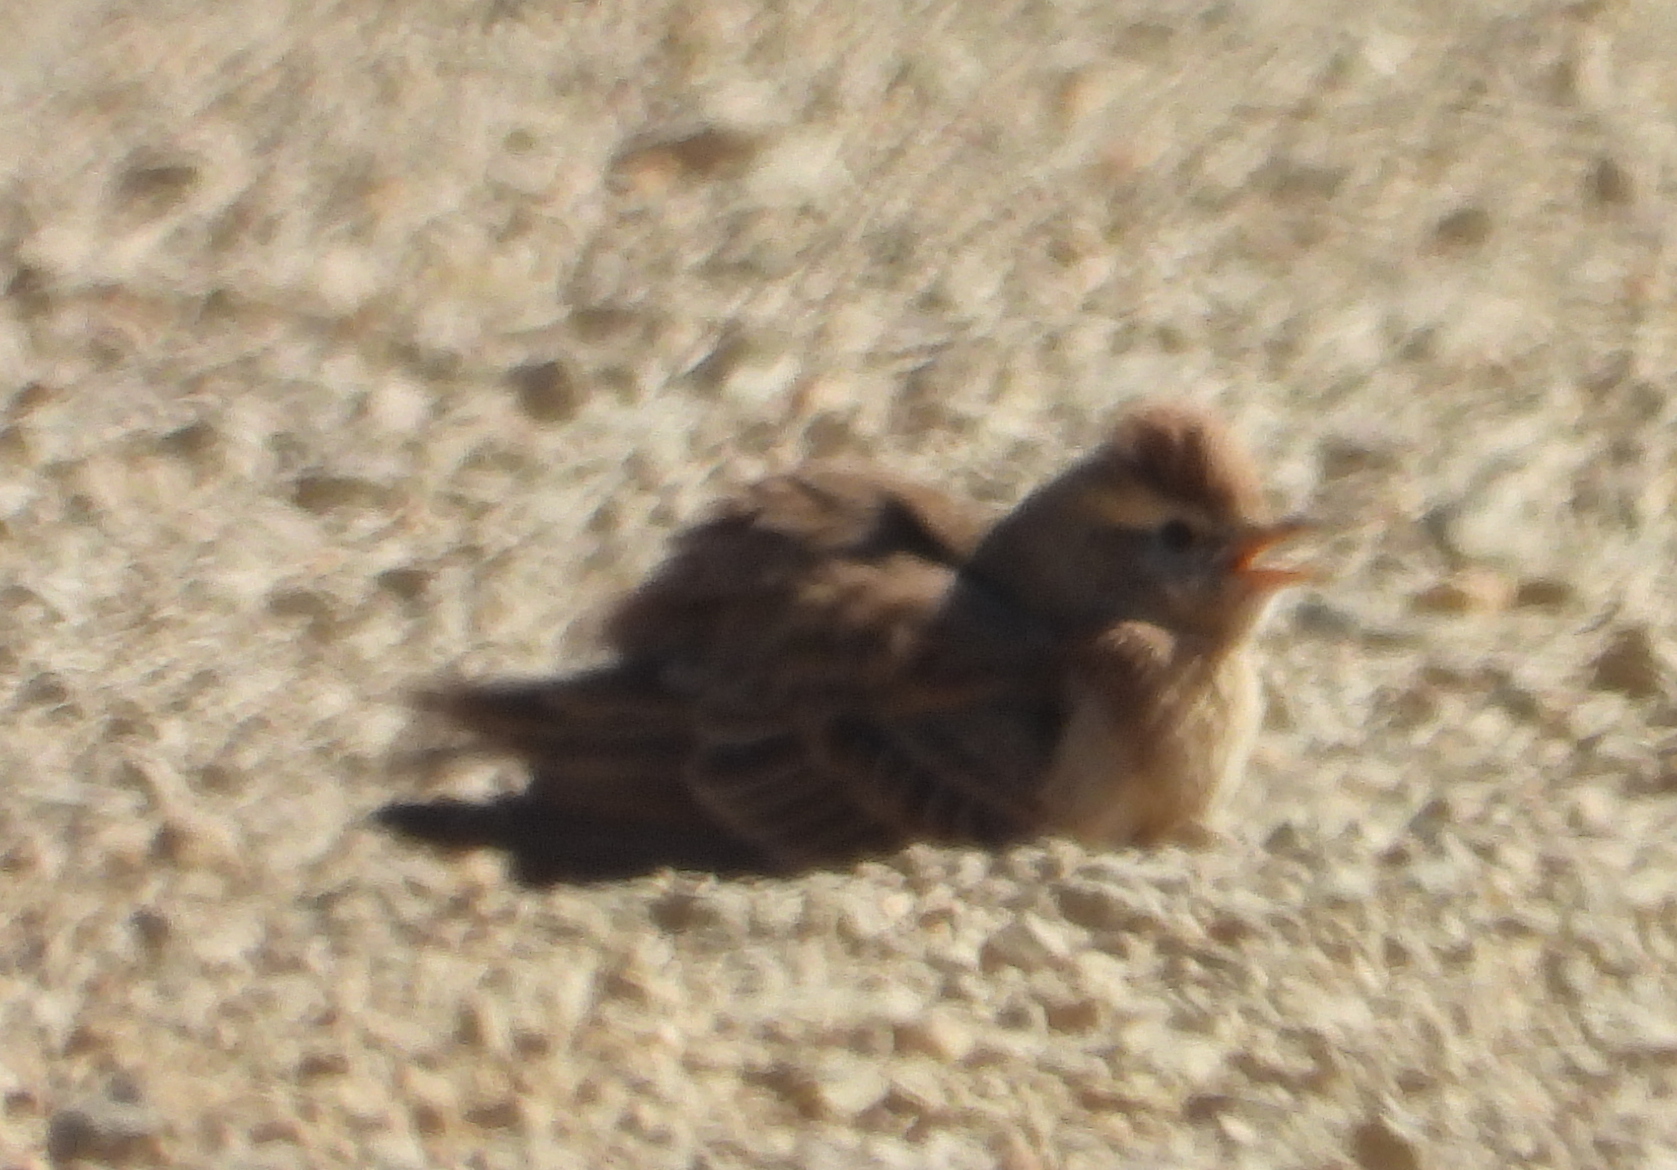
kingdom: Animalia
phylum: Chordata
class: Aves
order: Passeriformes
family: Alaudidae
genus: Calandrella
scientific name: Calandrella cinerea
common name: Red-capped lark
